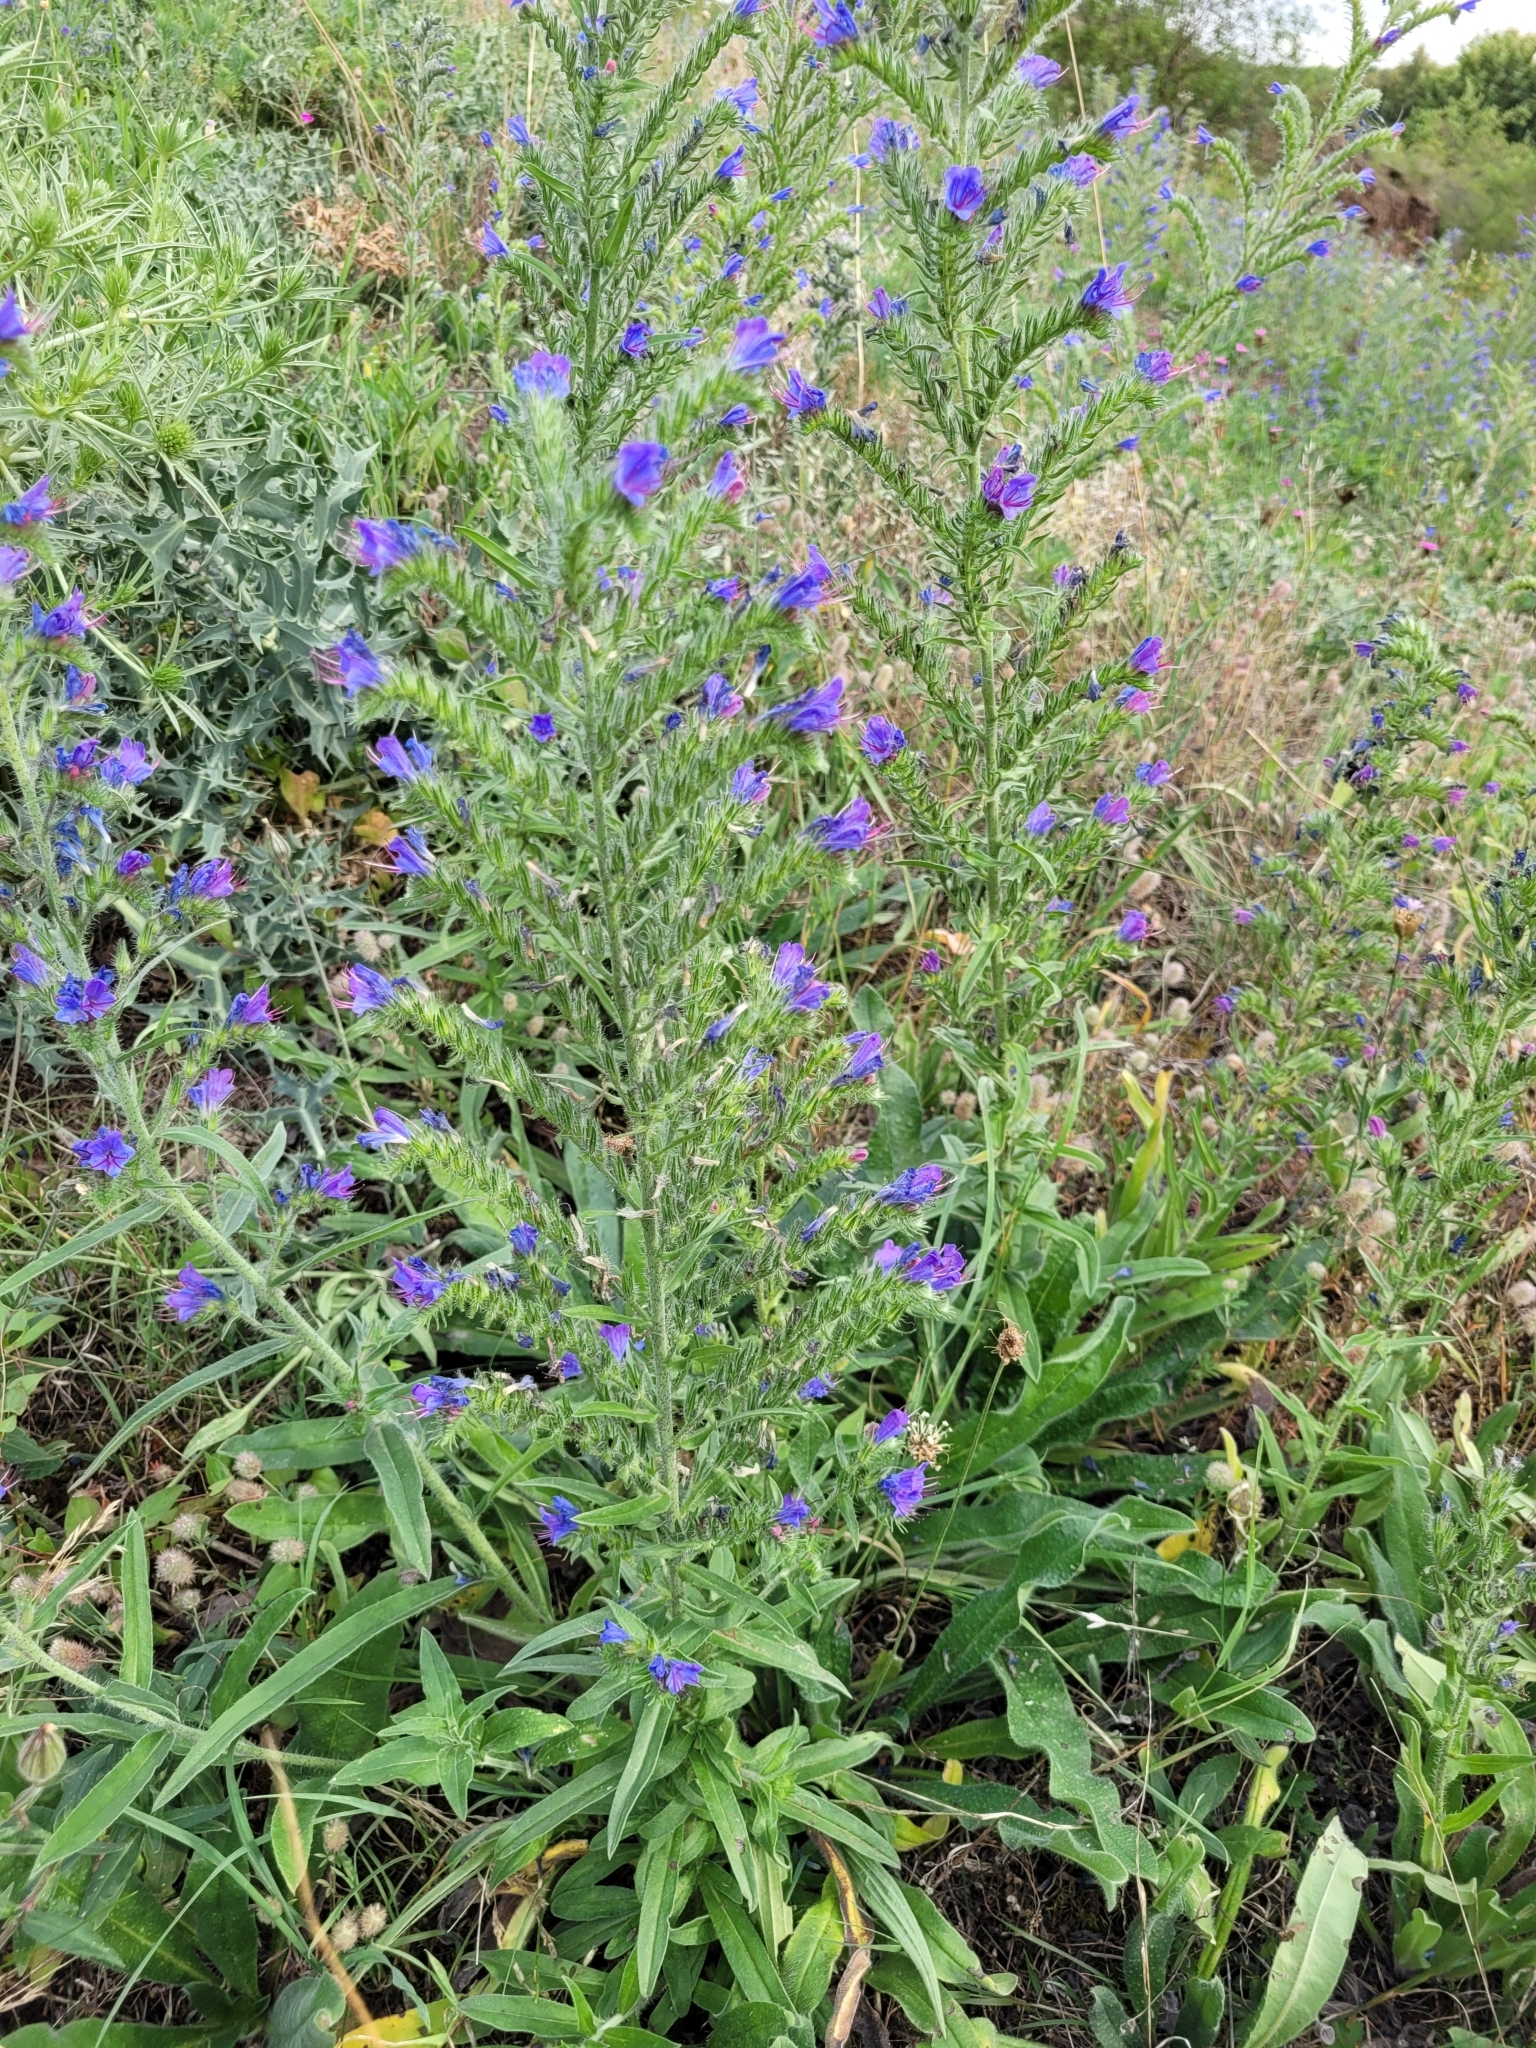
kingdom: Plantae
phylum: Tracheophyta
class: Magnoliopsida
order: Boraginales
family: Boraginaceae
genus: Echium
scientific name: Echium vulgare
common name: Common viper's bugloss
